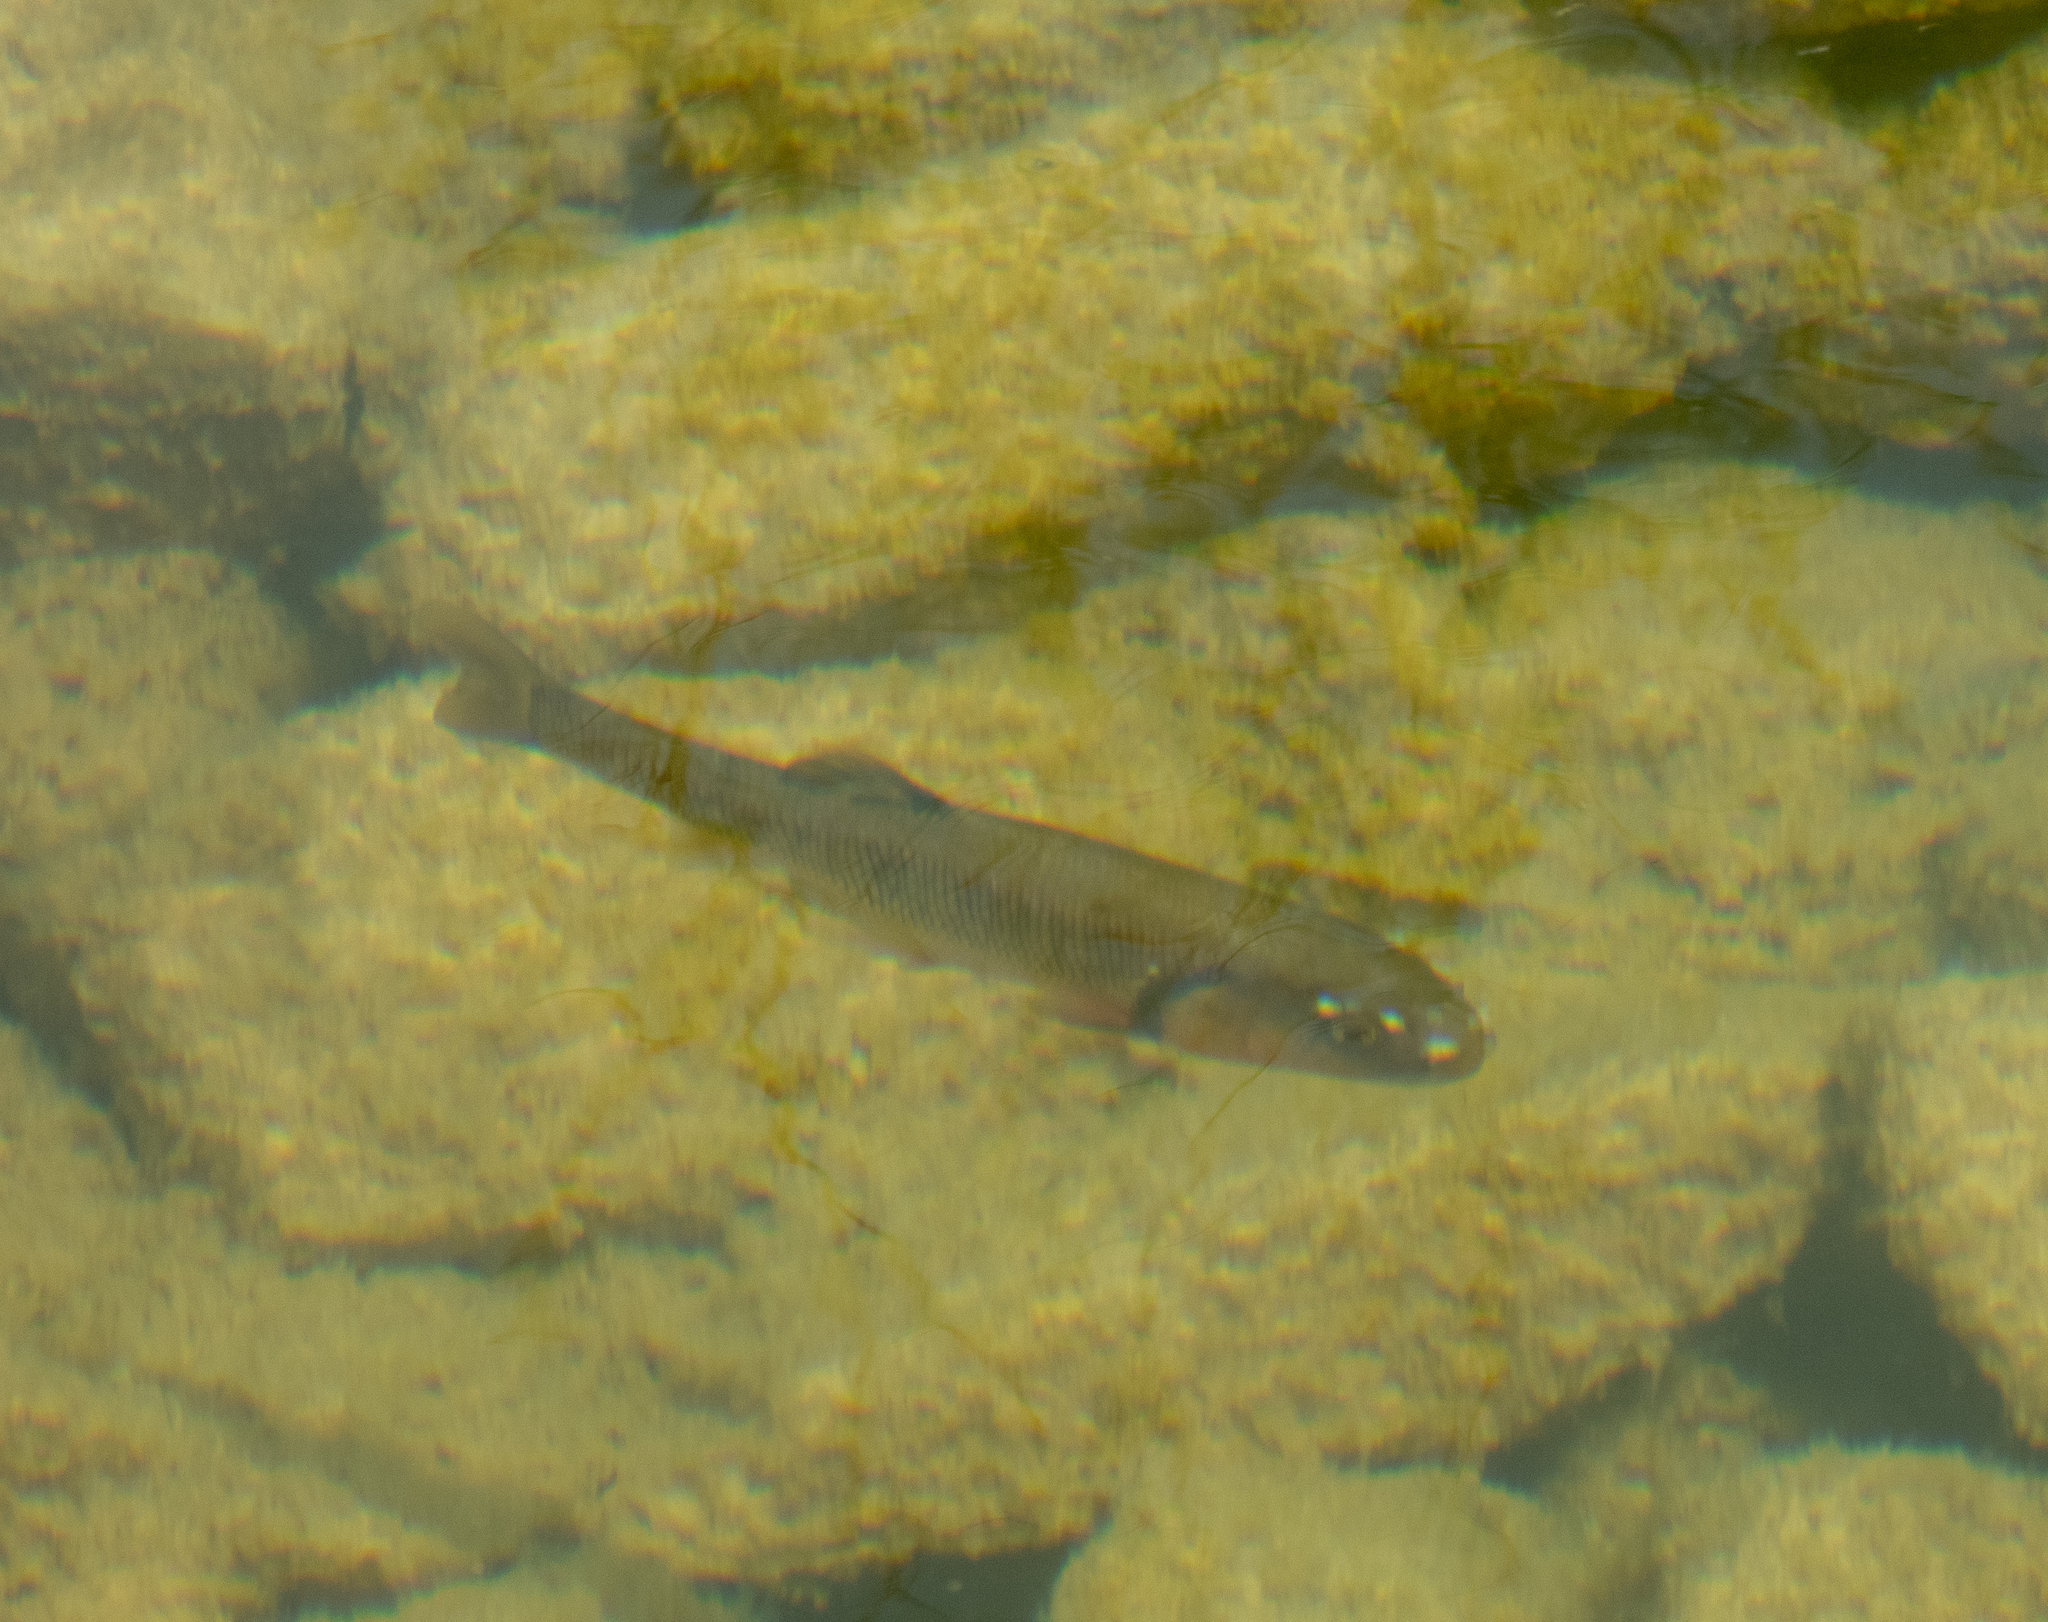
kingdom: Animalia
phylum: Chordata
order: Cypriniformes
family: Cyprinidae
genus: Semotilus
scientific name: Semotilus atromaculatus
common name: Creek chub
